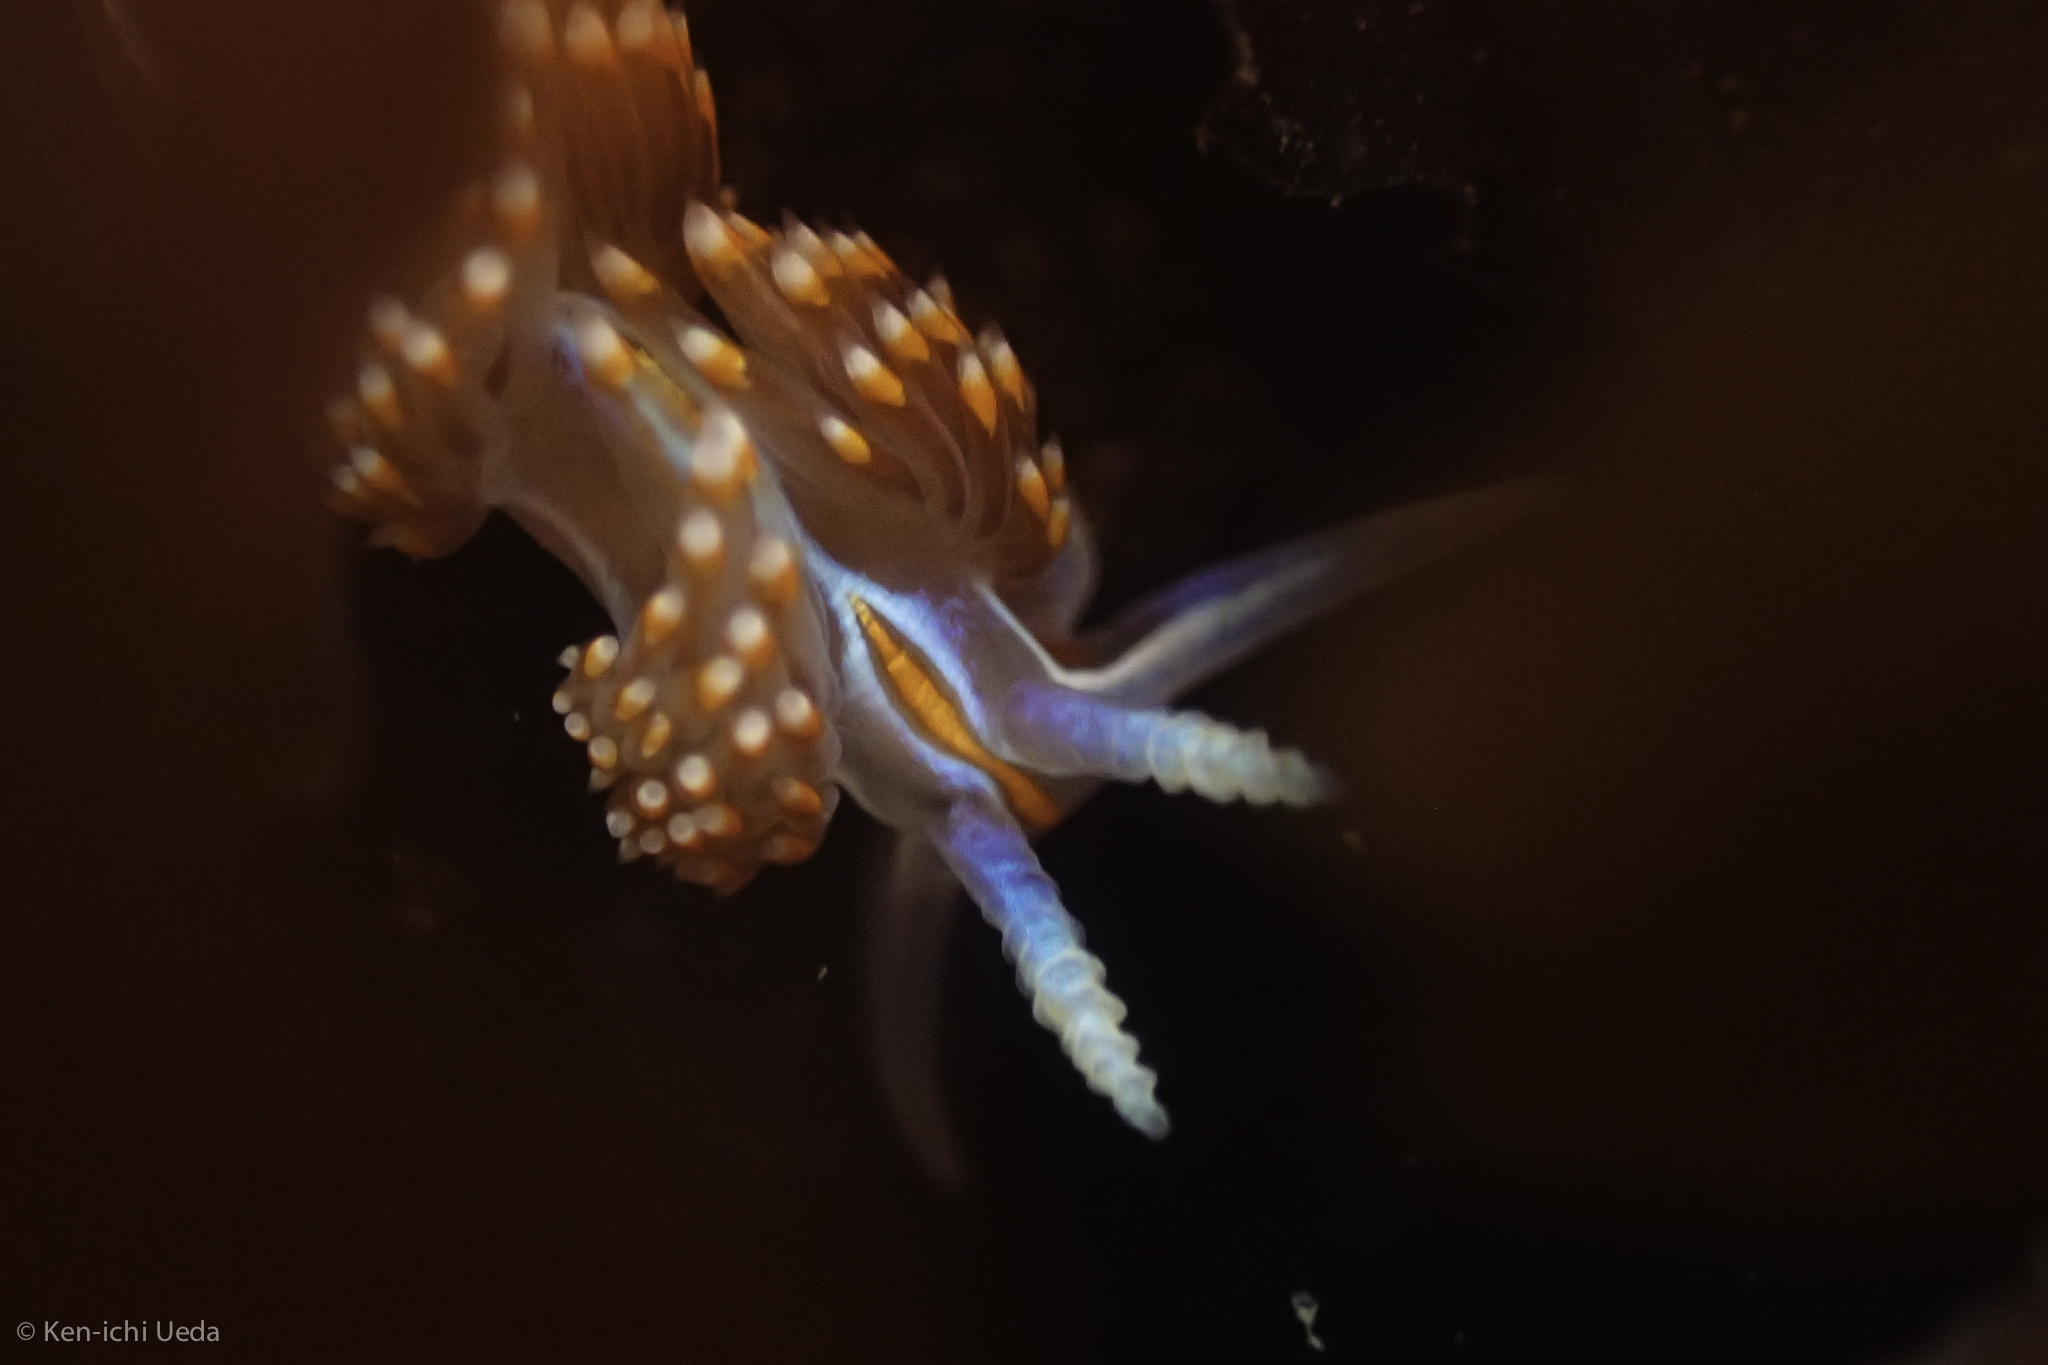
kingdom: Animalia
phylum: Mollusca
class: Gastropoda
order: Nudibranchia
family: Myrrhinidae
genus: Hermissenda
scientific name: Hermissenda opalescens
